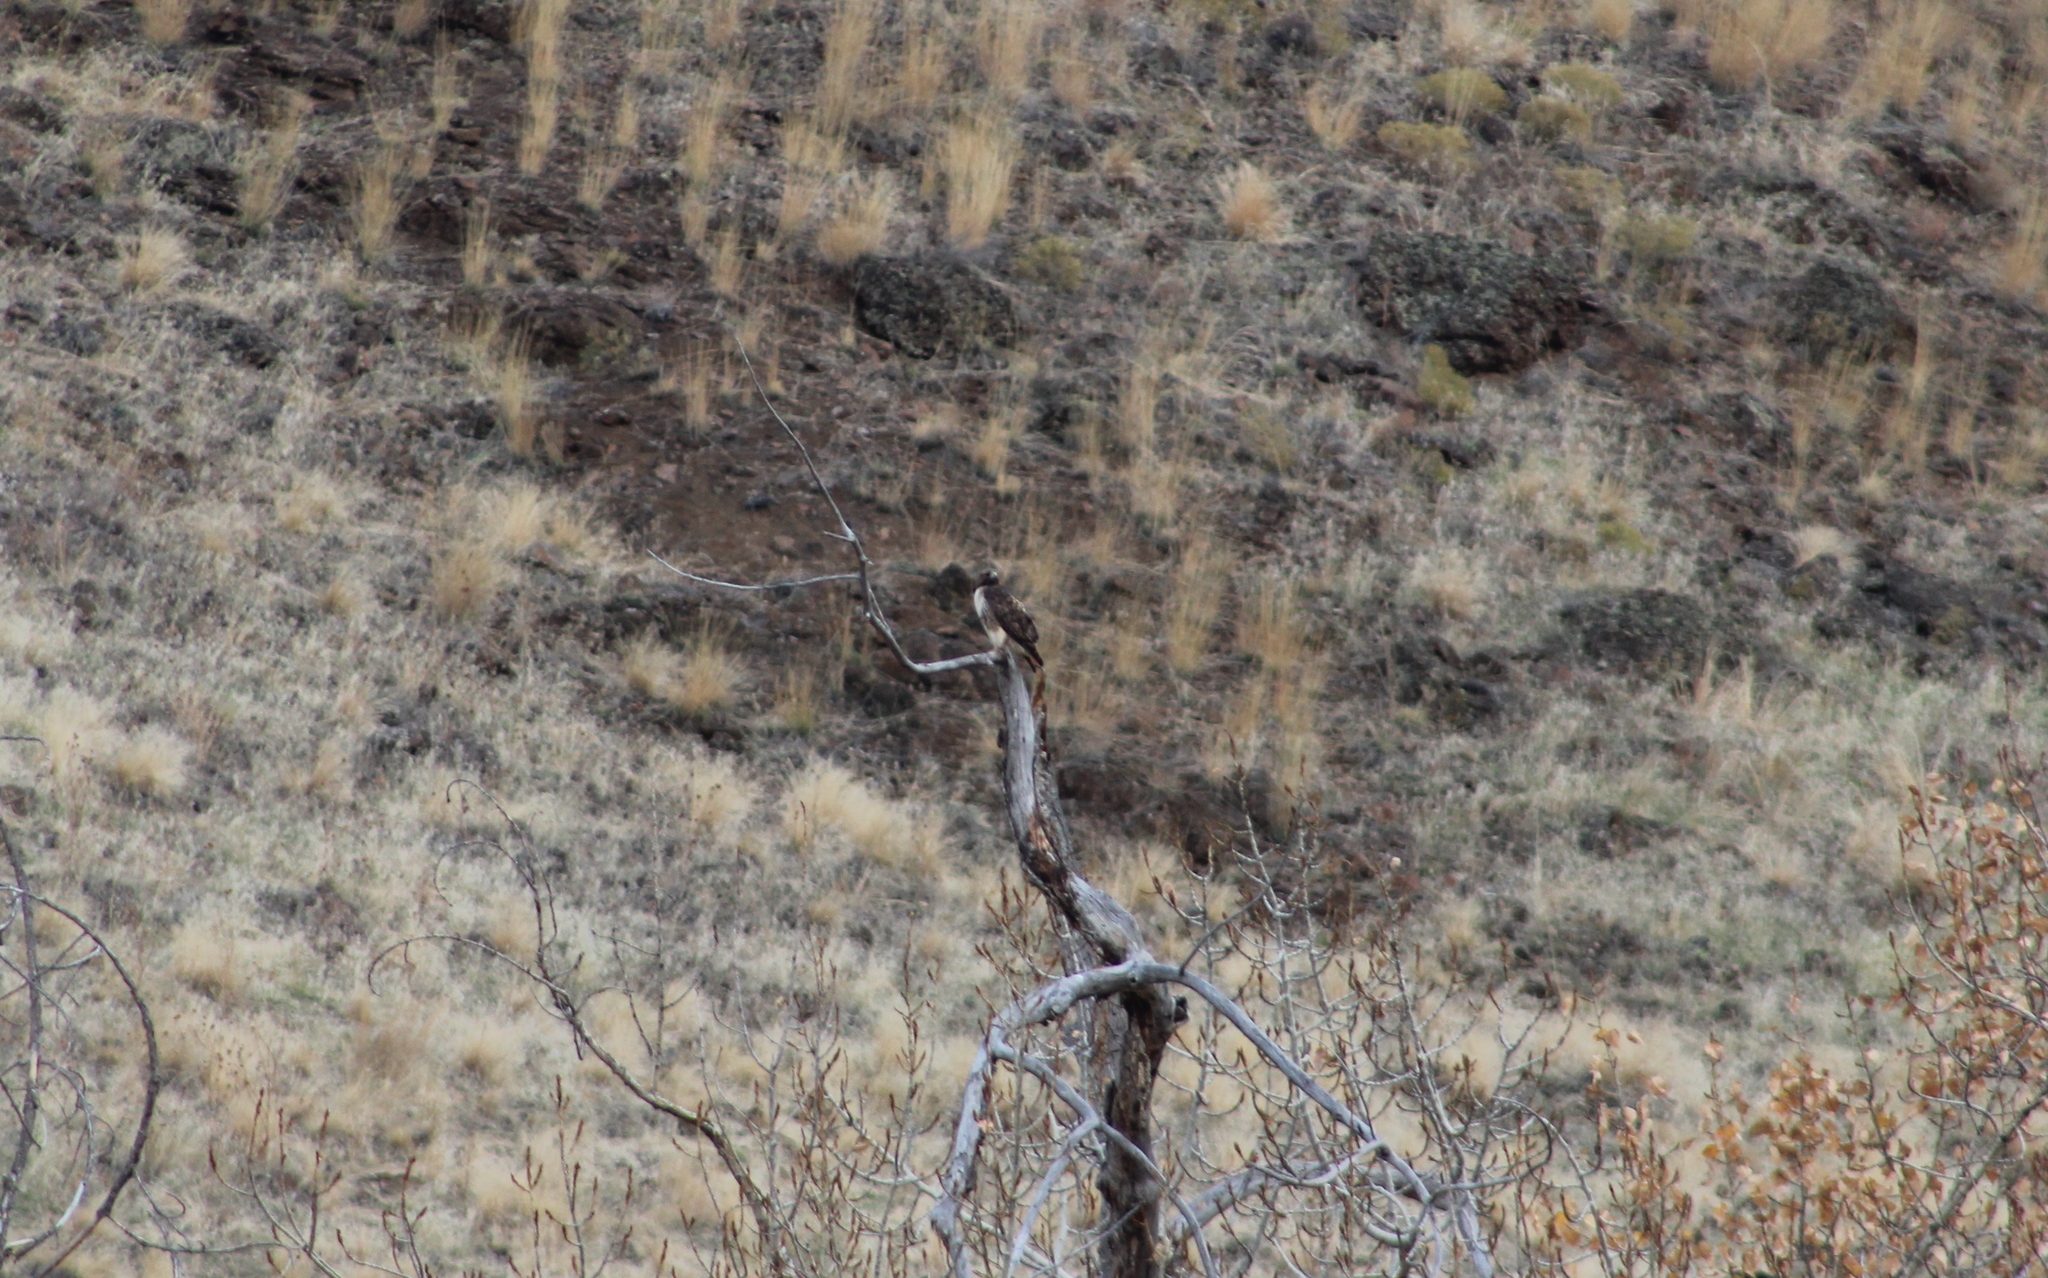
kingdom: Animalia
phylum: Chordata
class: Aves
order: Accipitriformes
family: Accipitridae
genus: Buteo
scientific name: Buteo jamaicensis
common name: Red-tailed hawk
